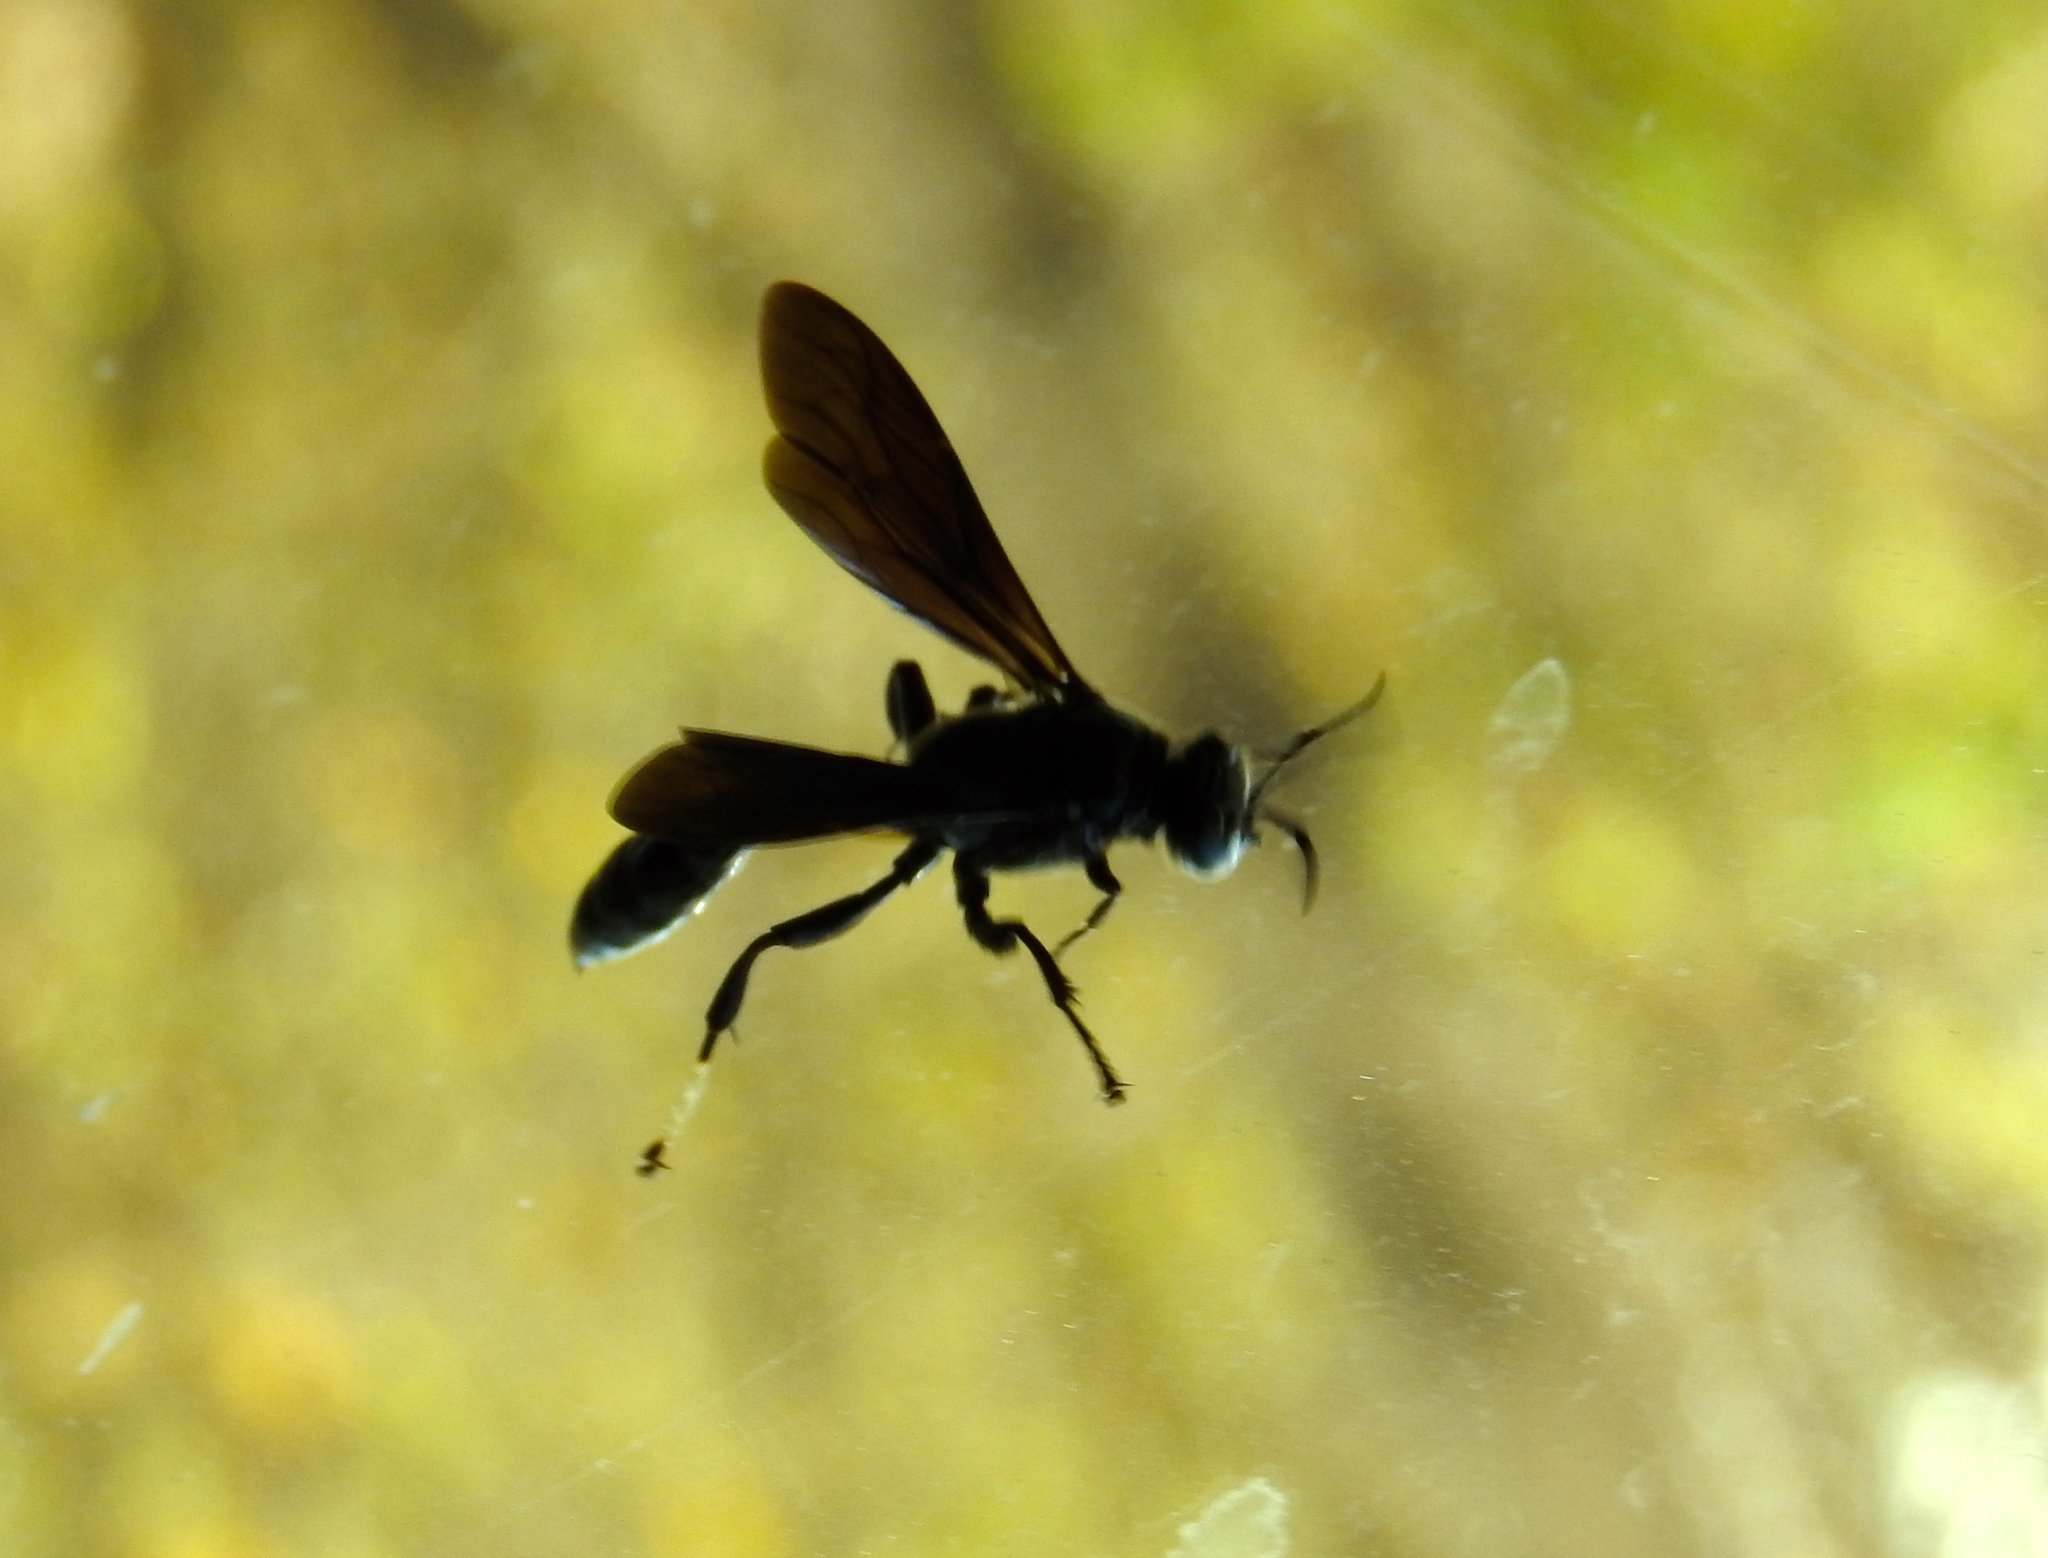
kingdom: Animalia
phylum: Arthropoda
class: Insecta
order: Hymenoptera
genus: Trypargilum
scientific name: Trypargilum
